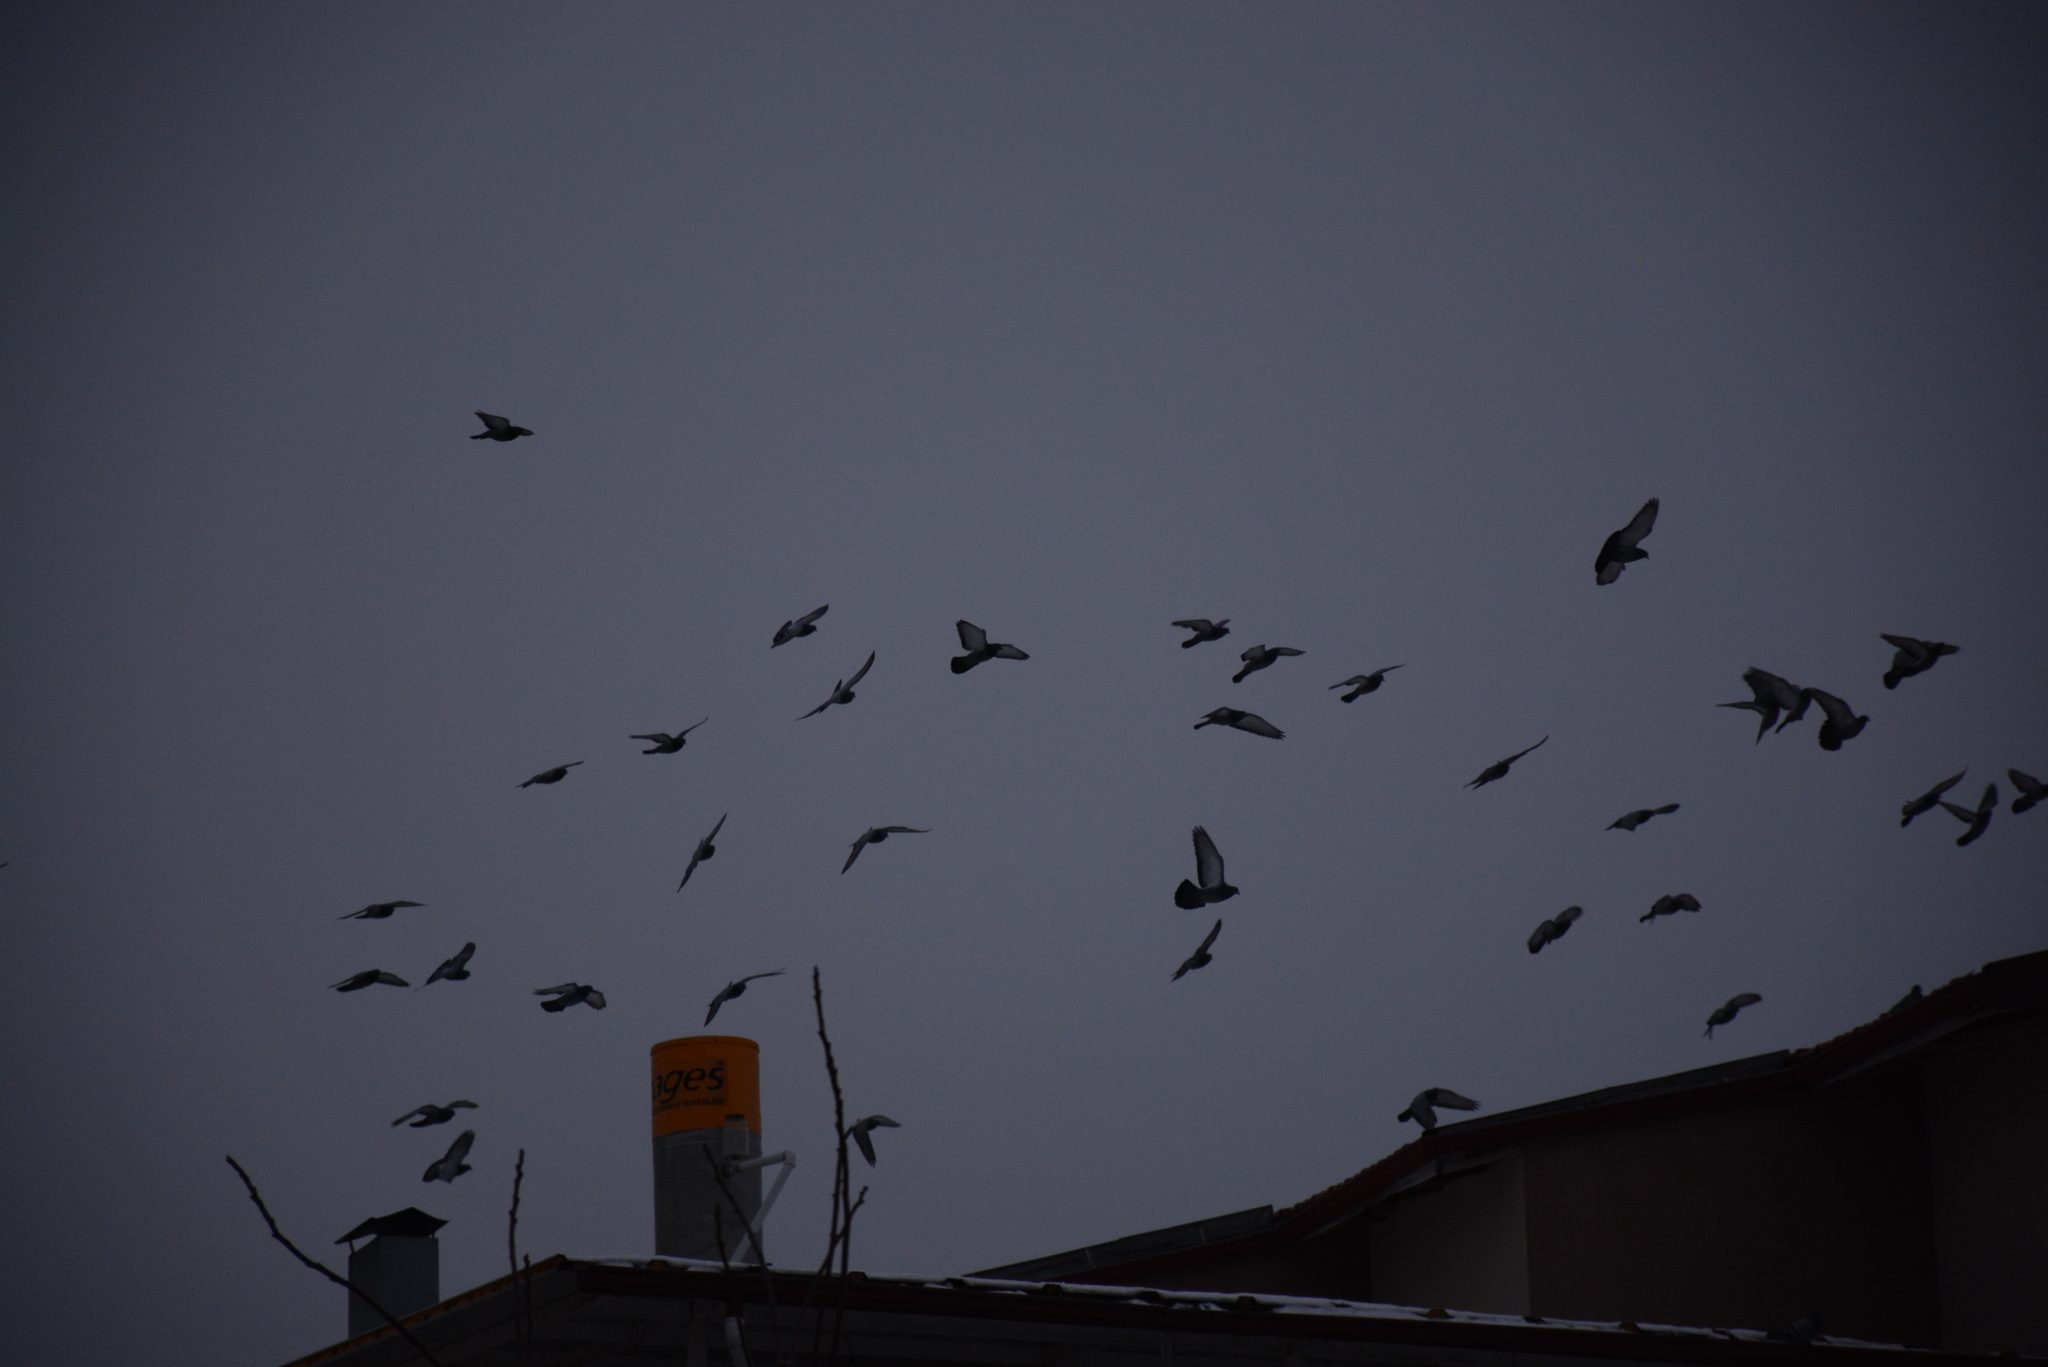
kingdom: Animalia
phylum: Chordata
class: Aves
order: Columbiformes
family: Columbidae
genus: Columba
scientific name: Columba livia
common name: Rock pigeon
